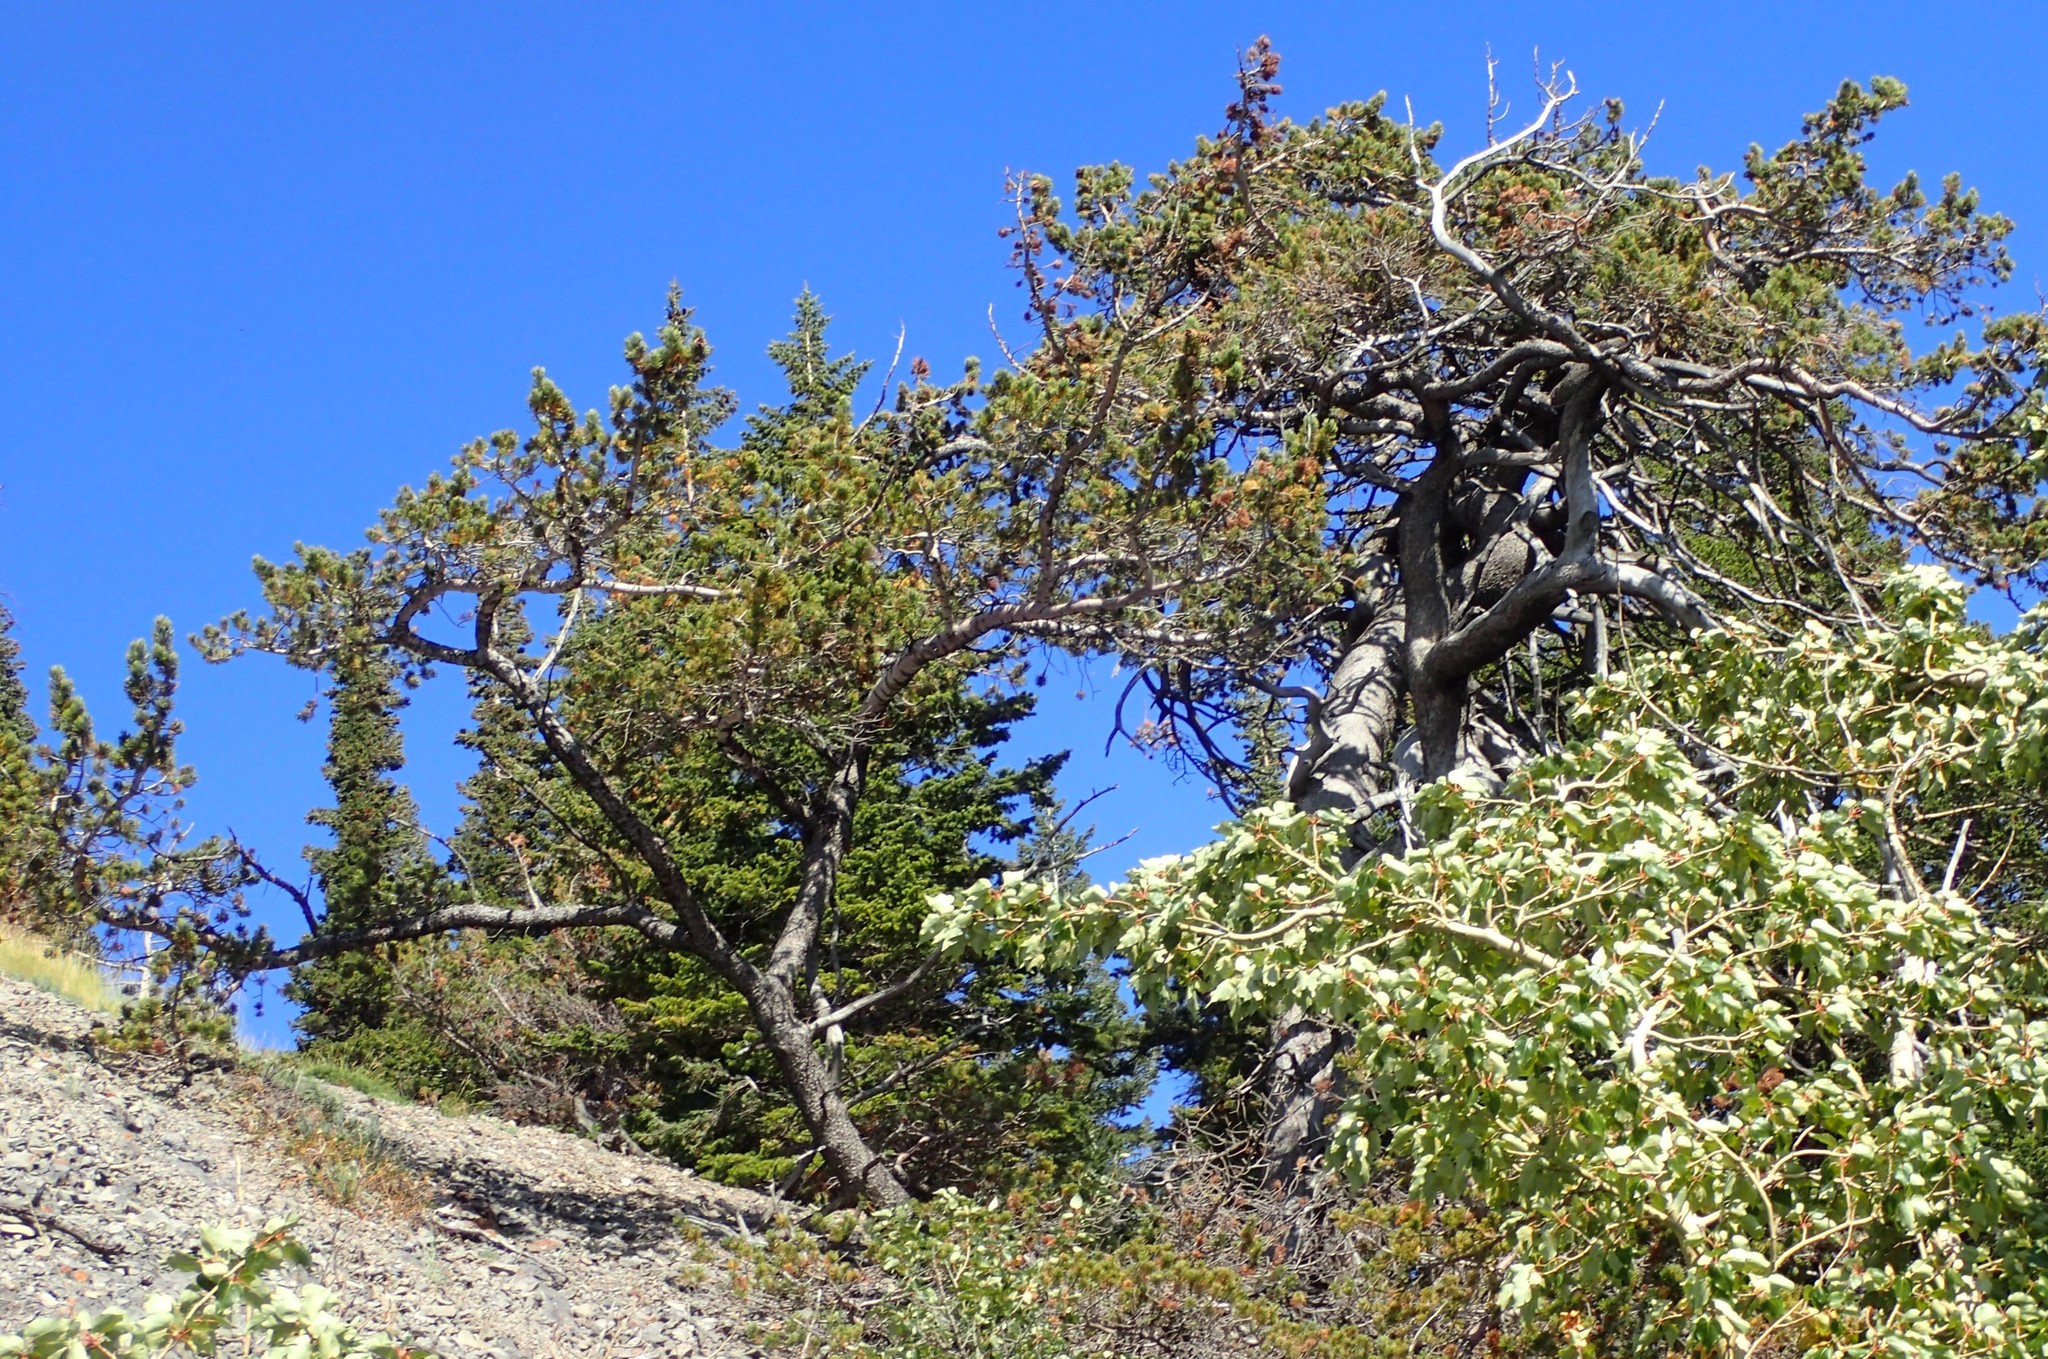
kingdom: Plantae
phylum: Tracheophyta
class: Pinopsida
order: Pinales
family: Pinaceae
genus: Pinus
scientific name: Pinus flexilis
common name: Limber pine
